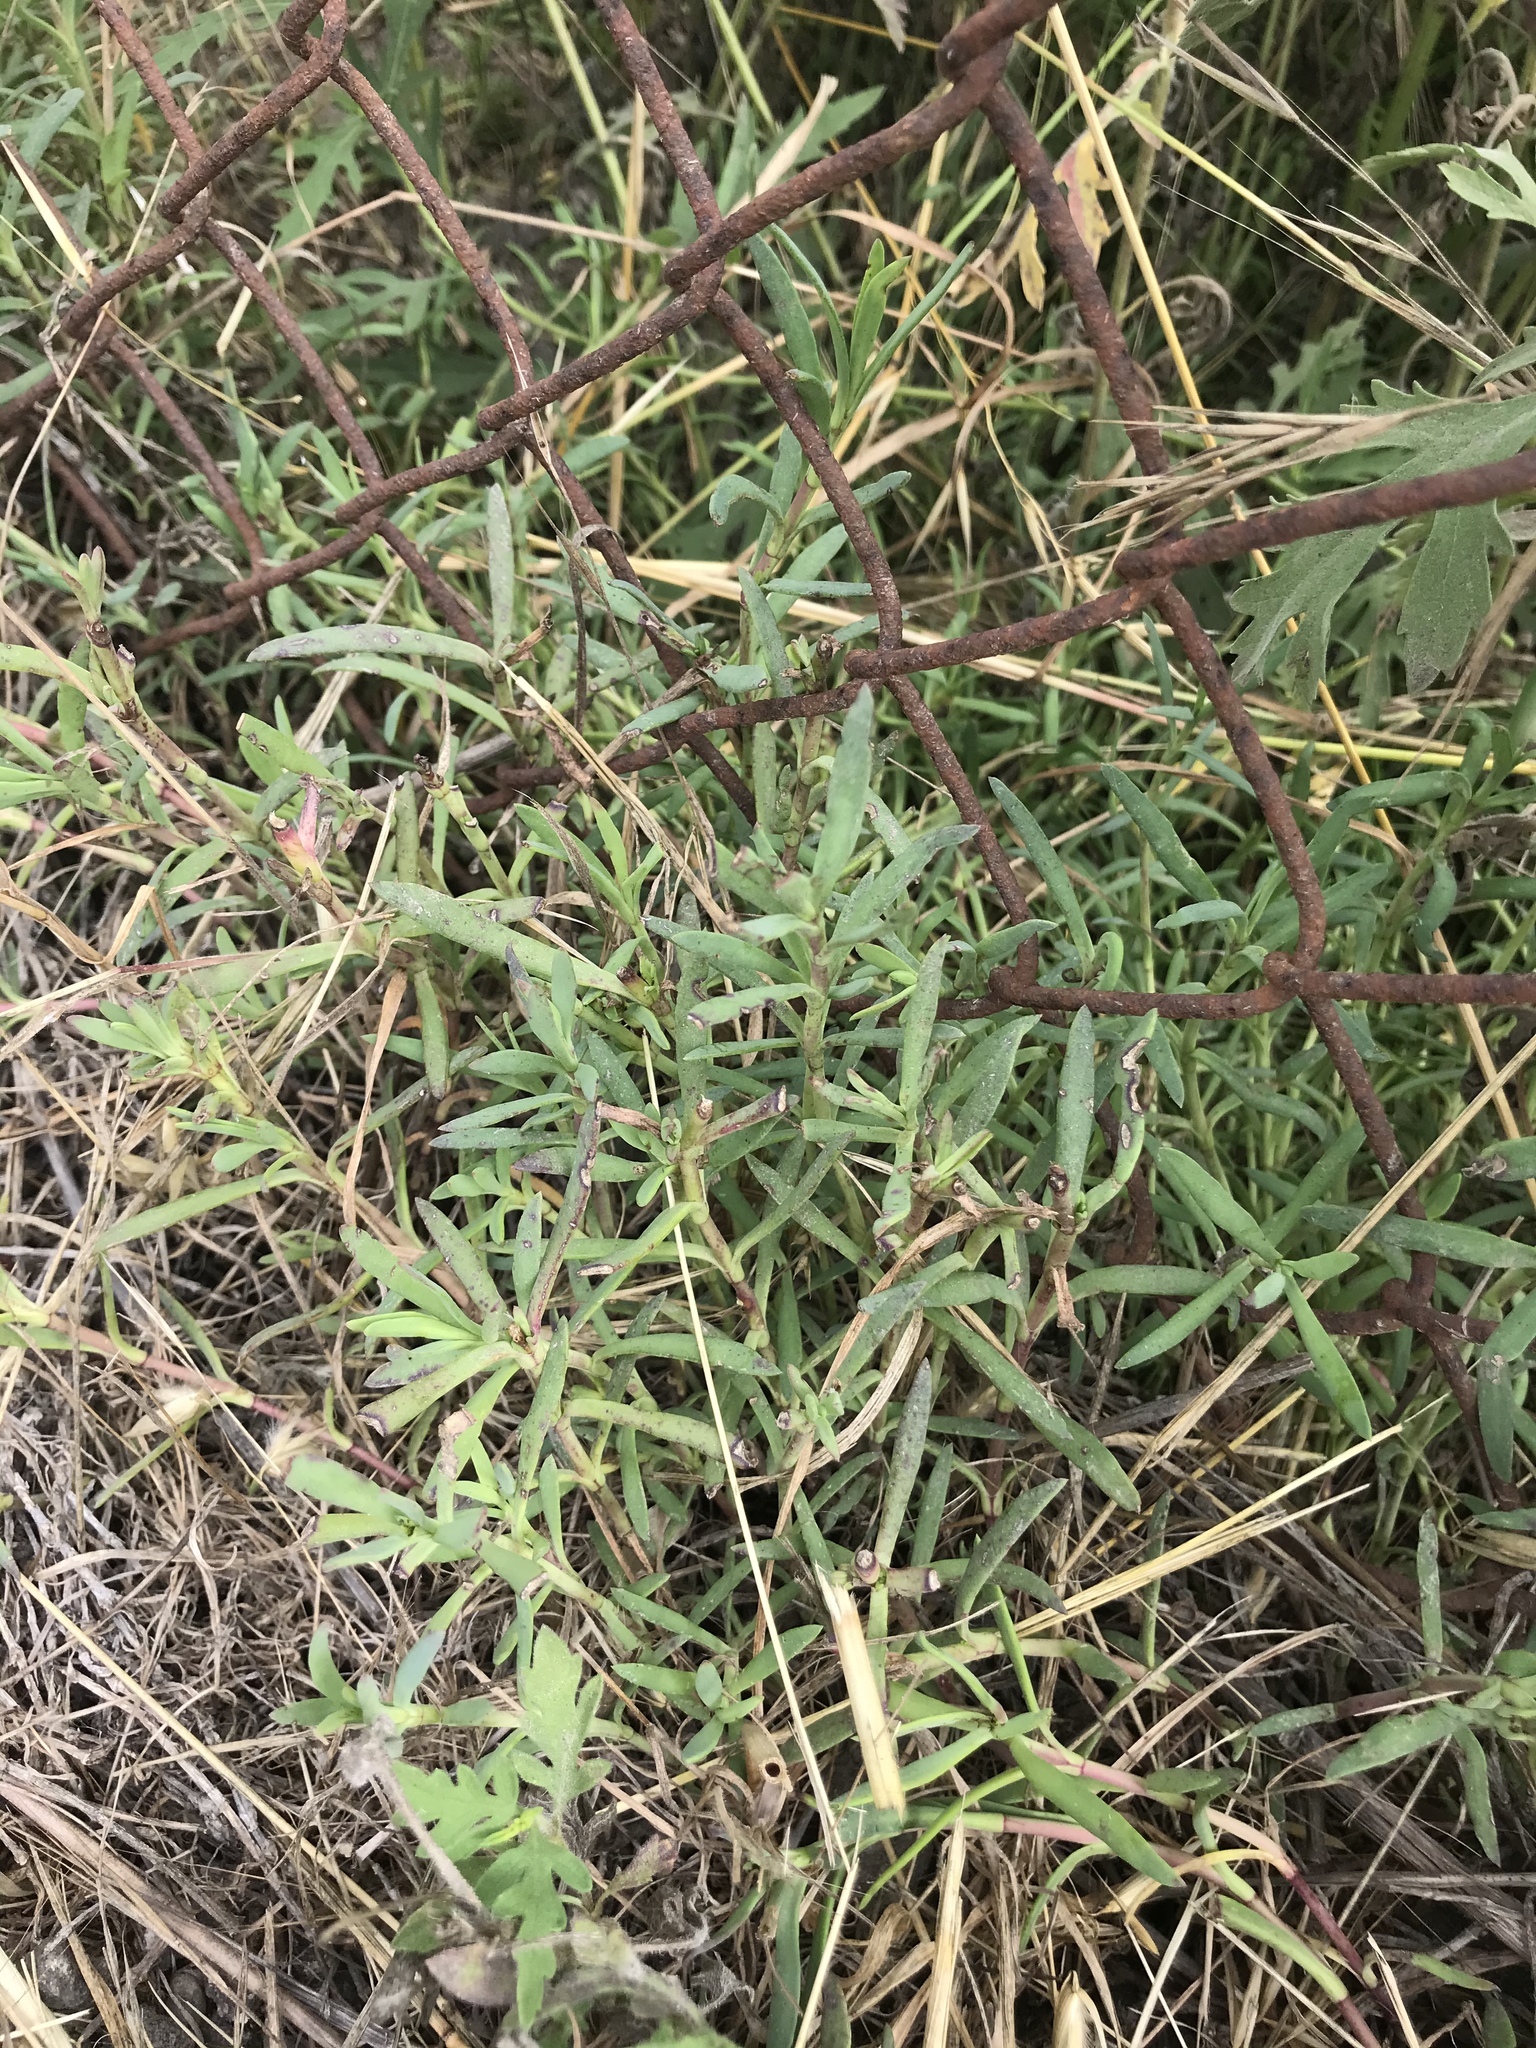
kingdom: Plantae
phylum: Tracheophyta
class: Magnoliopsida
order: Asterales
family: Asteraceae
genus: Jaumea
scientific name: Jaumea carnosa
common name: Fleshy jaumea
